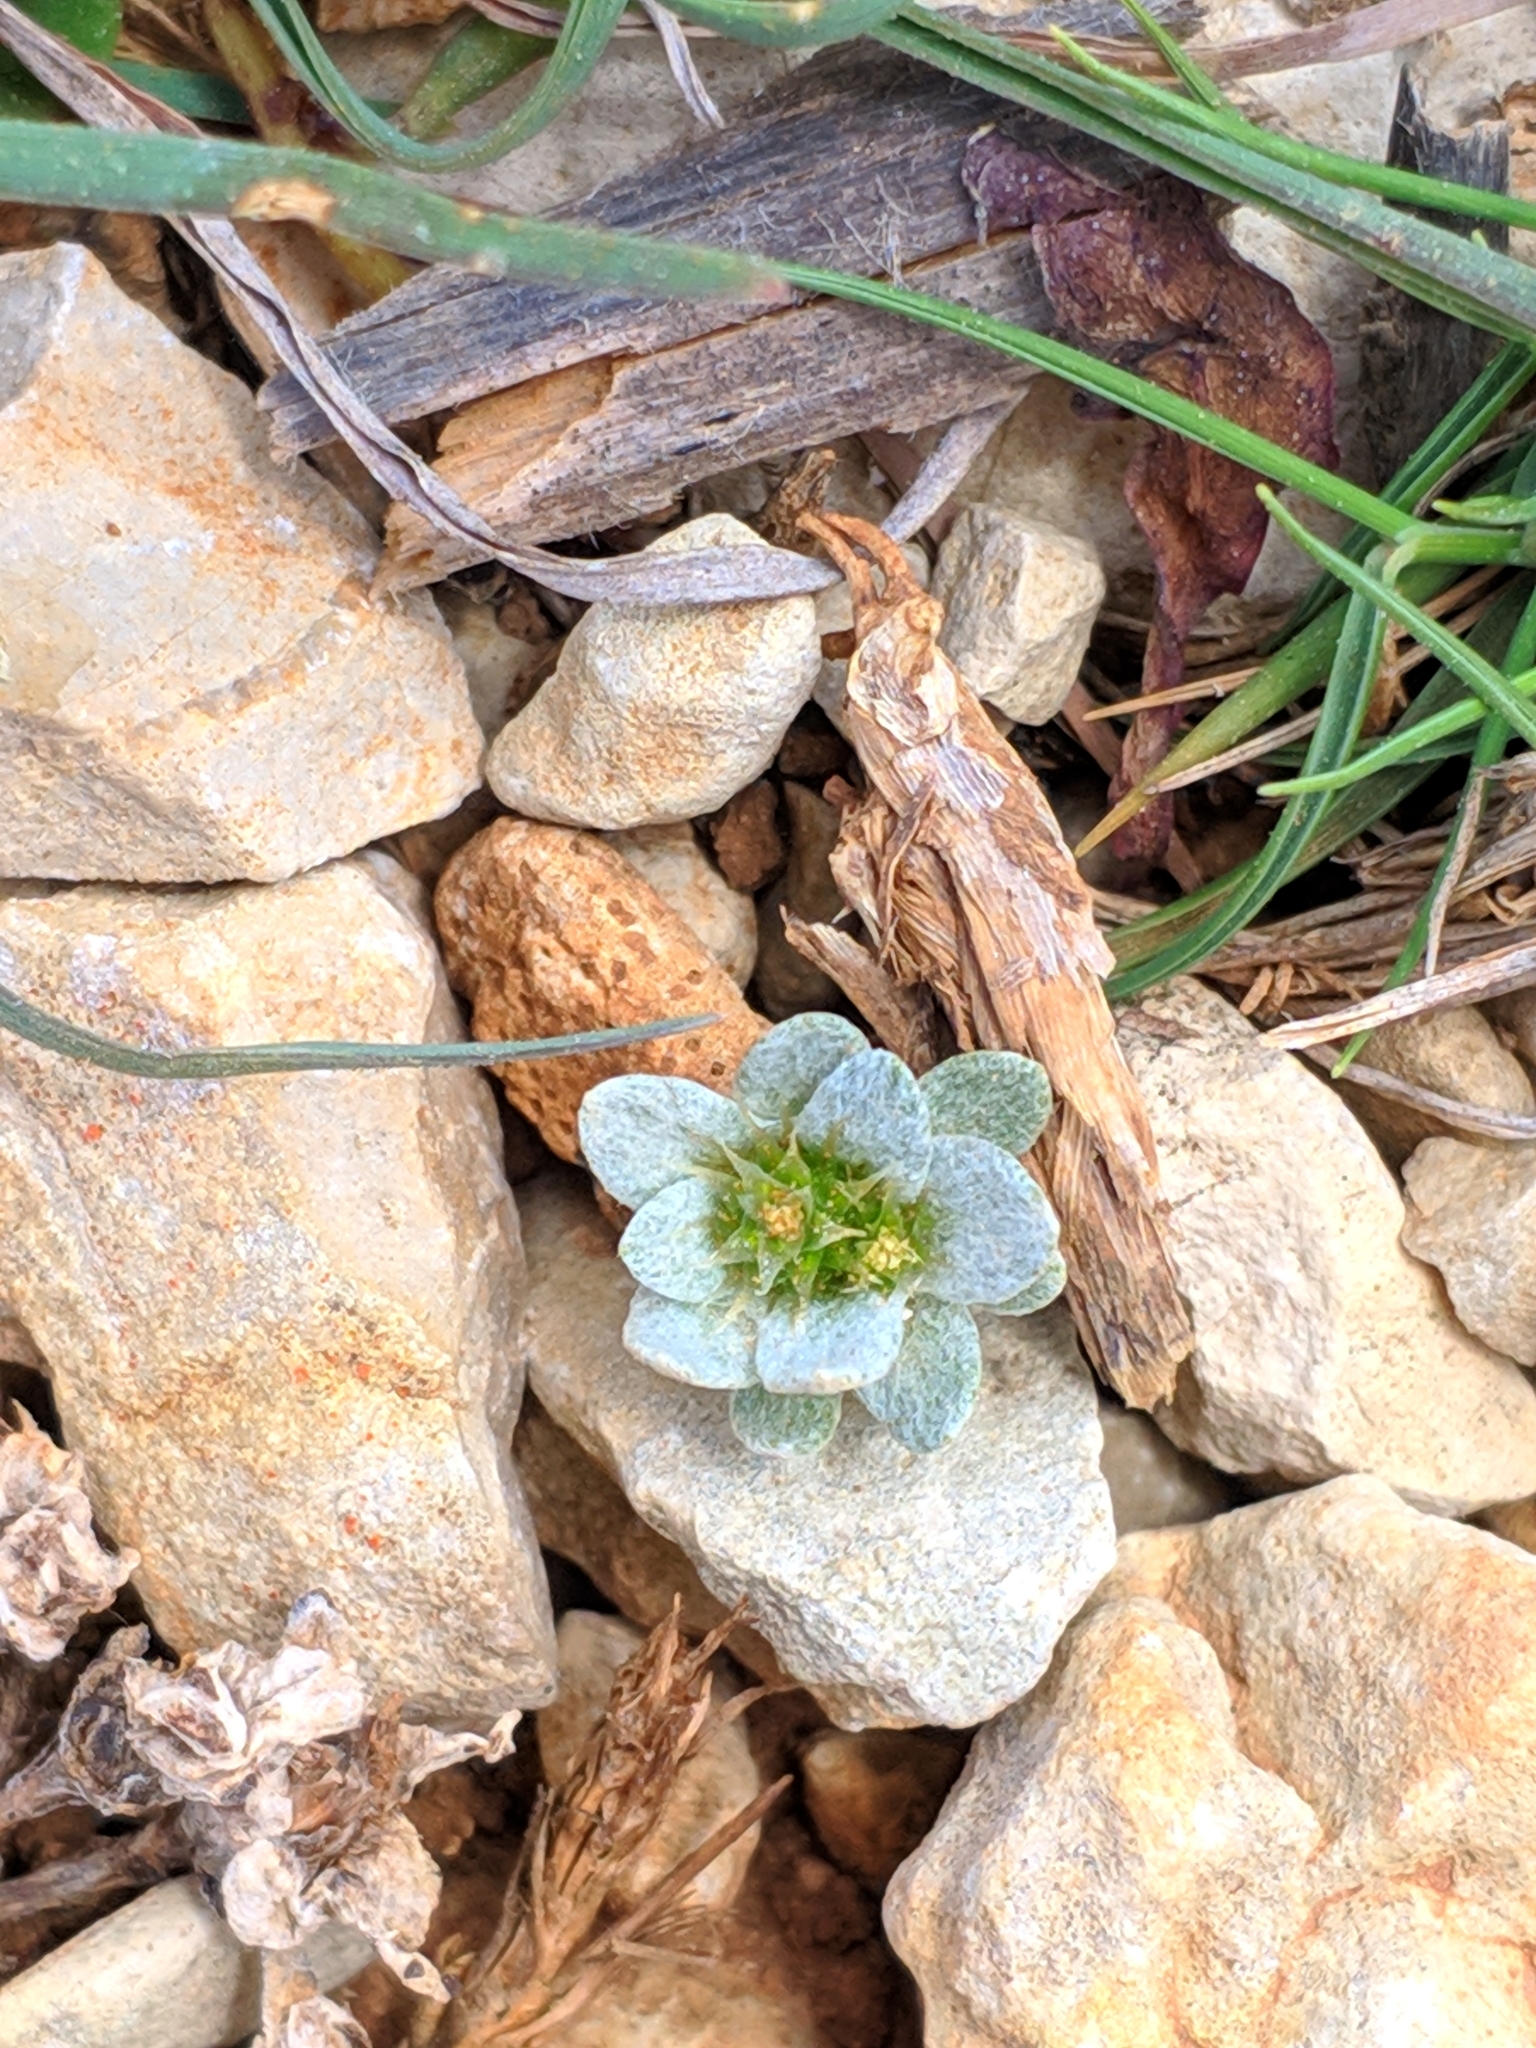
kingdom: Plantae
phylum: Tracheophyta
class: Magnoliopsida
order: Asterales
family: Asteraceae
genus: Filago
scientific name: Filago pygmaea
